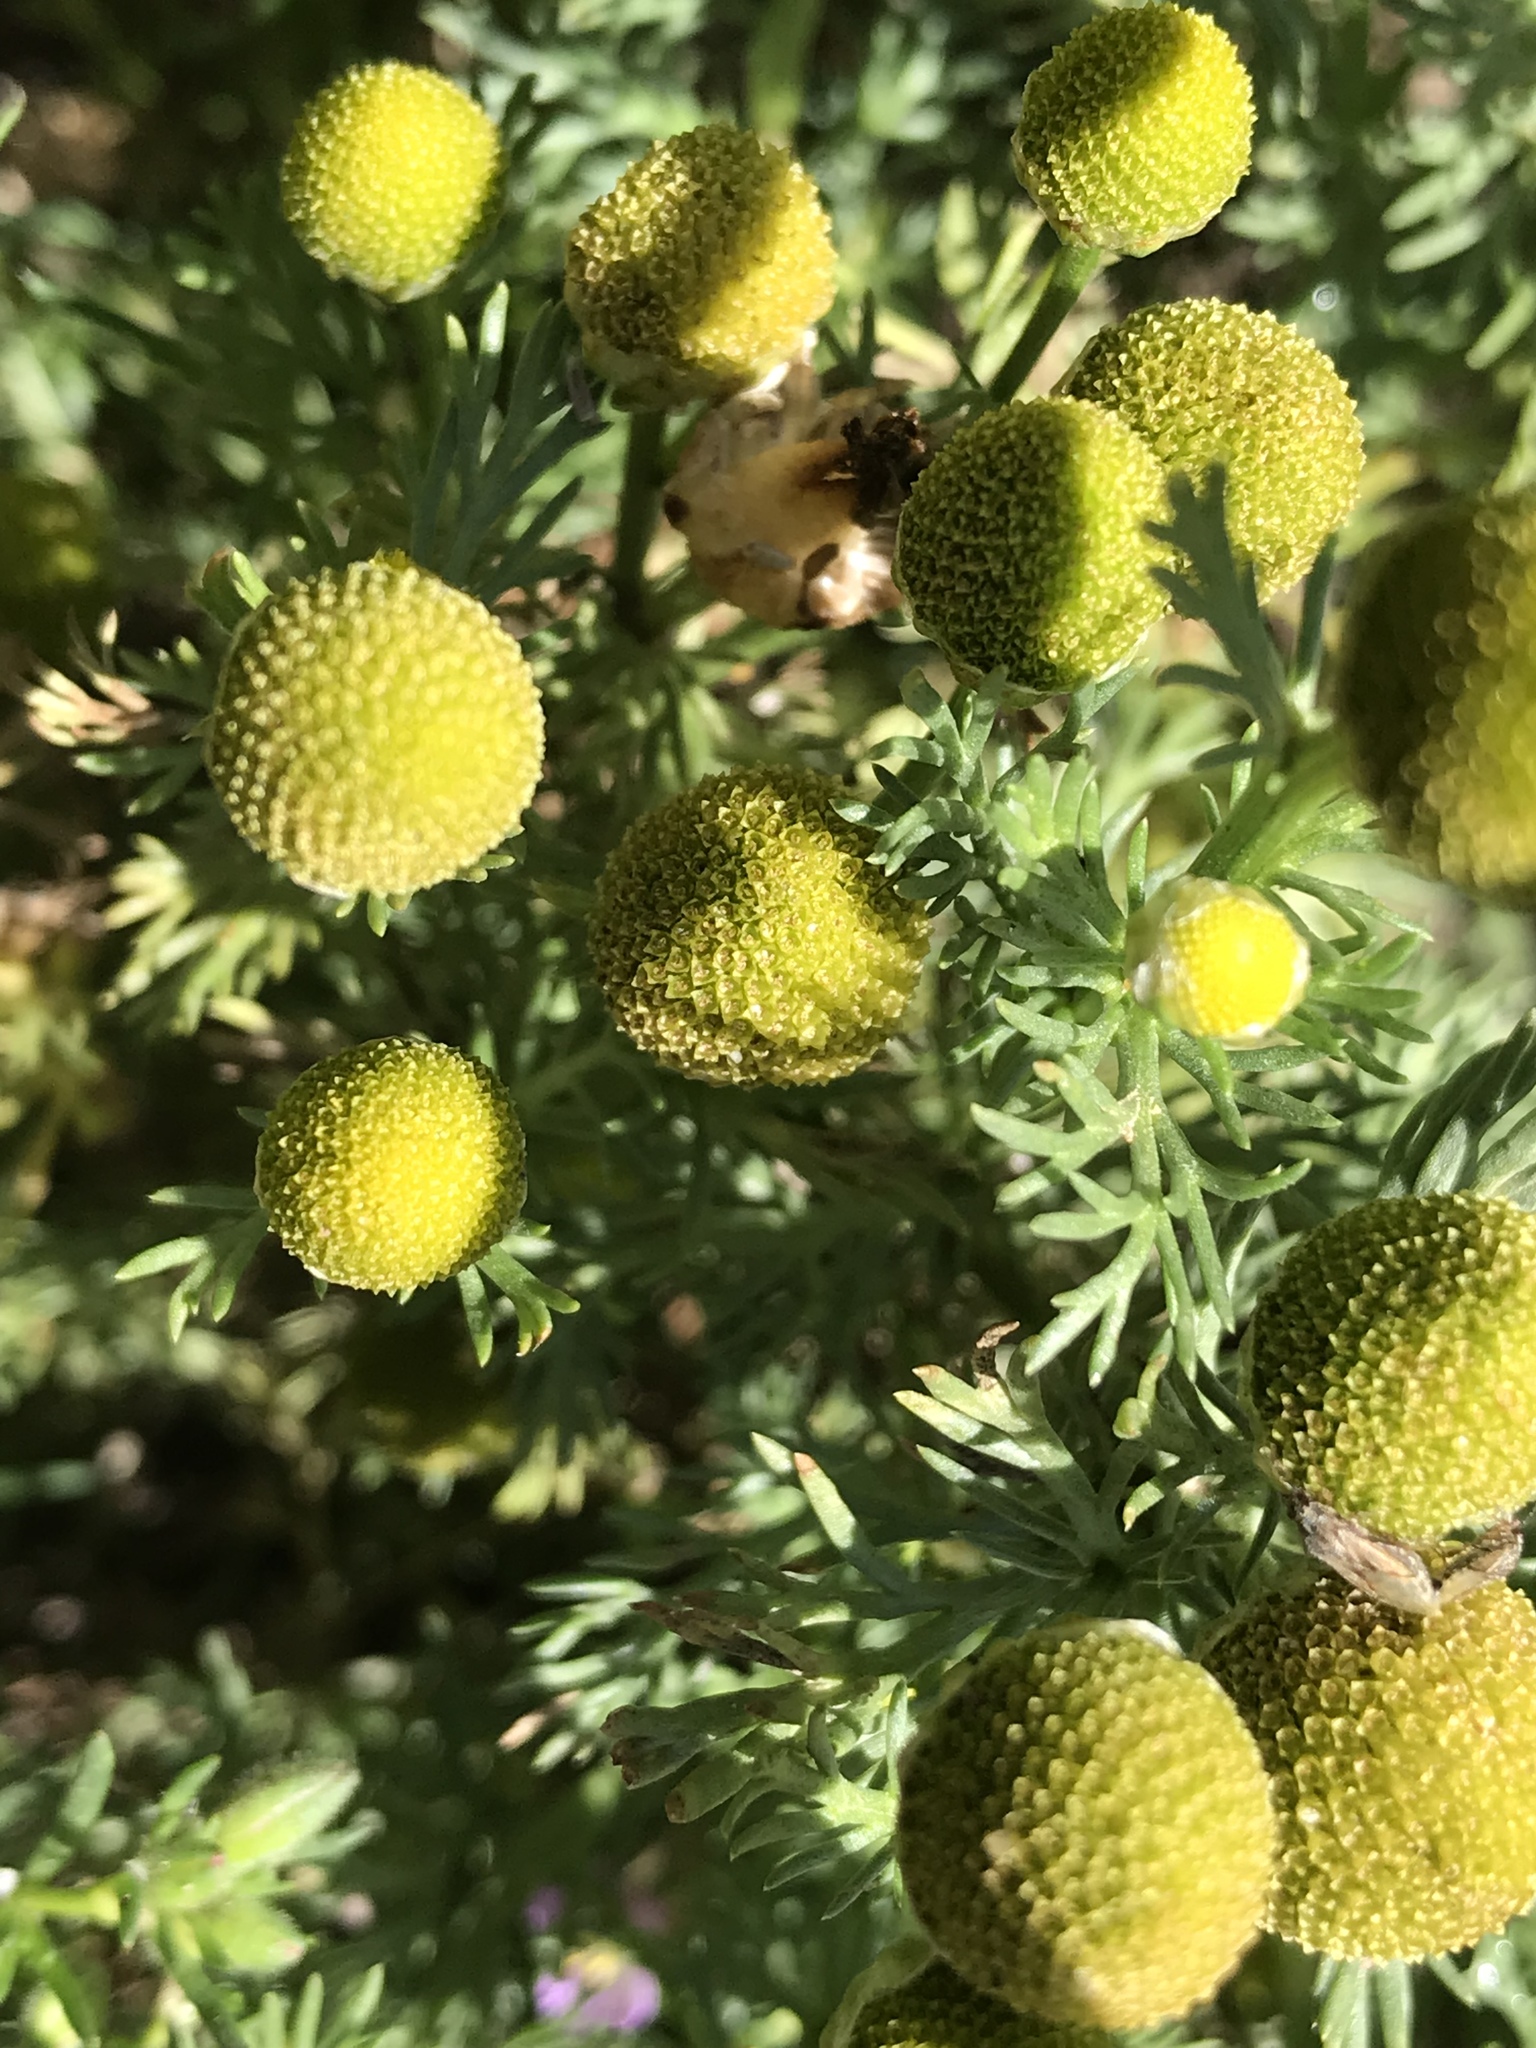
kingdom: Plantae
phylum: Tracheophyta
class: Magnoliopsida
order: Asterales
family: Asteraceae
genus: Matricaria
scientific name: Matricaria discoidea
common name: Disc mayweed
